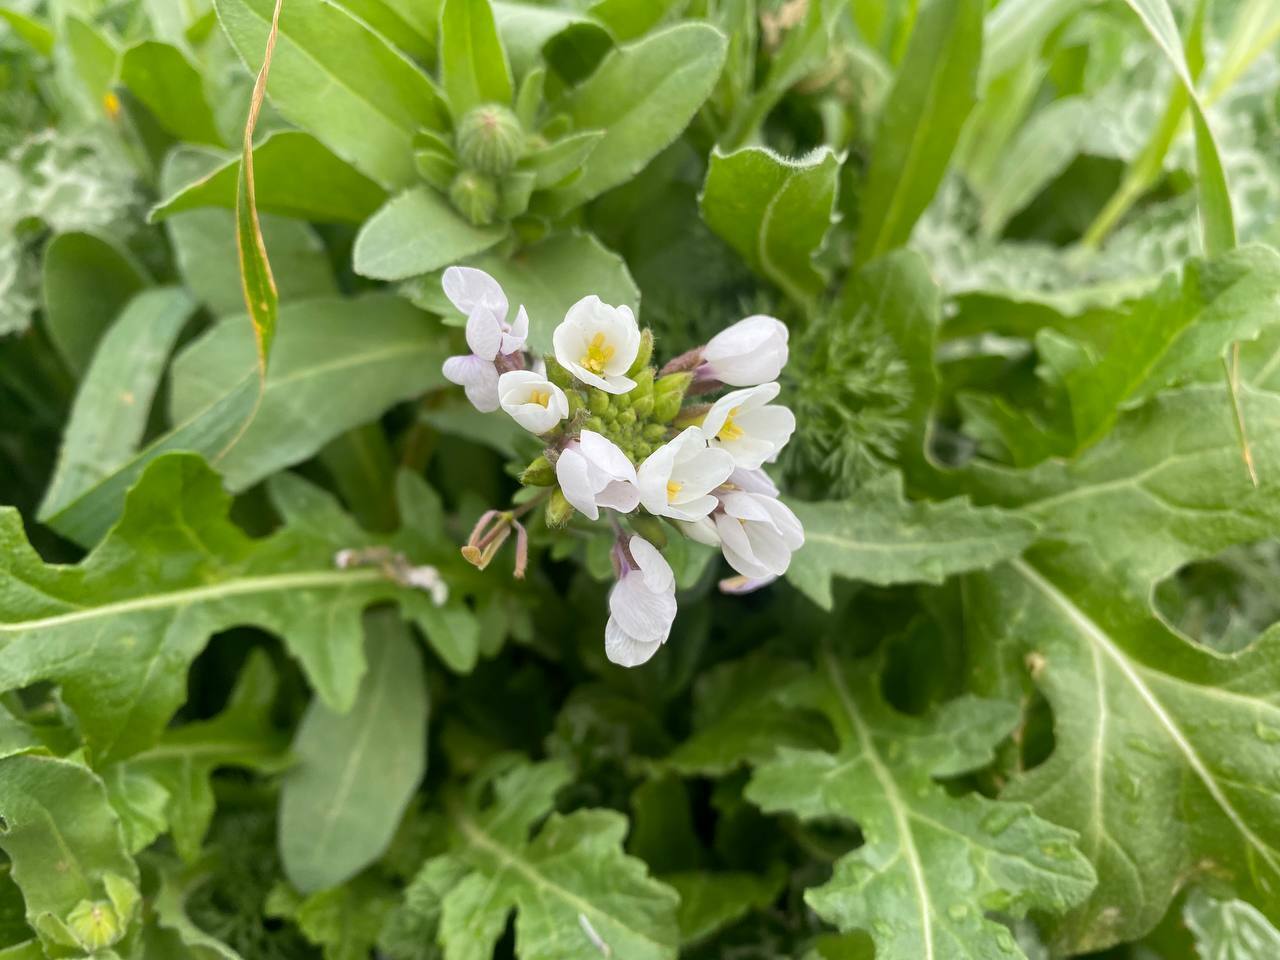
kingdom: Plantae
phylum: Tracheophyta
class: Magnoliopsida
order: Brassicales
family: Brassicaceae
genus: Diplotaxis
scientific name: Diplotaxis erucoides
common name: White rocket
